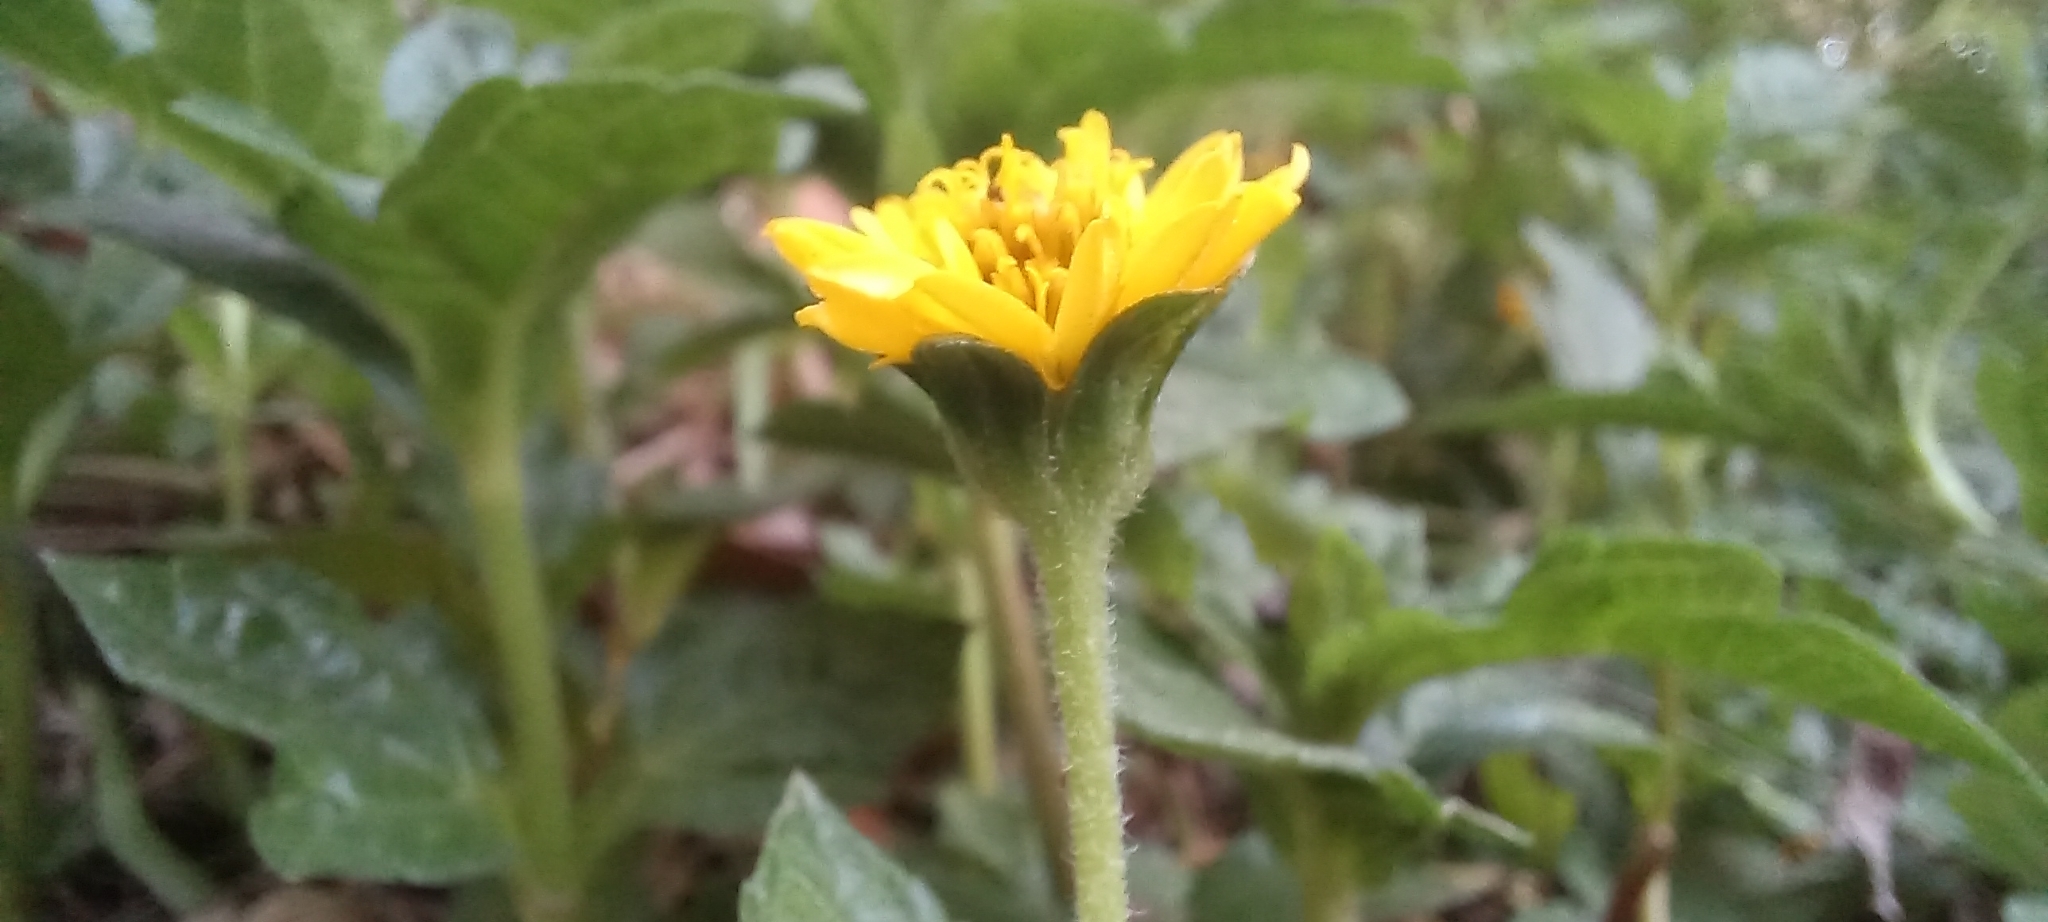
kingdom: Plantae
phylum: Tracheophyta
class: Magnoliopsida
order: Asterales
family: Asteraceae
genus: Sphagneticola
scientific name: Sphagneticola trilobata
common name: Bay biscayne creeping-oxeye
